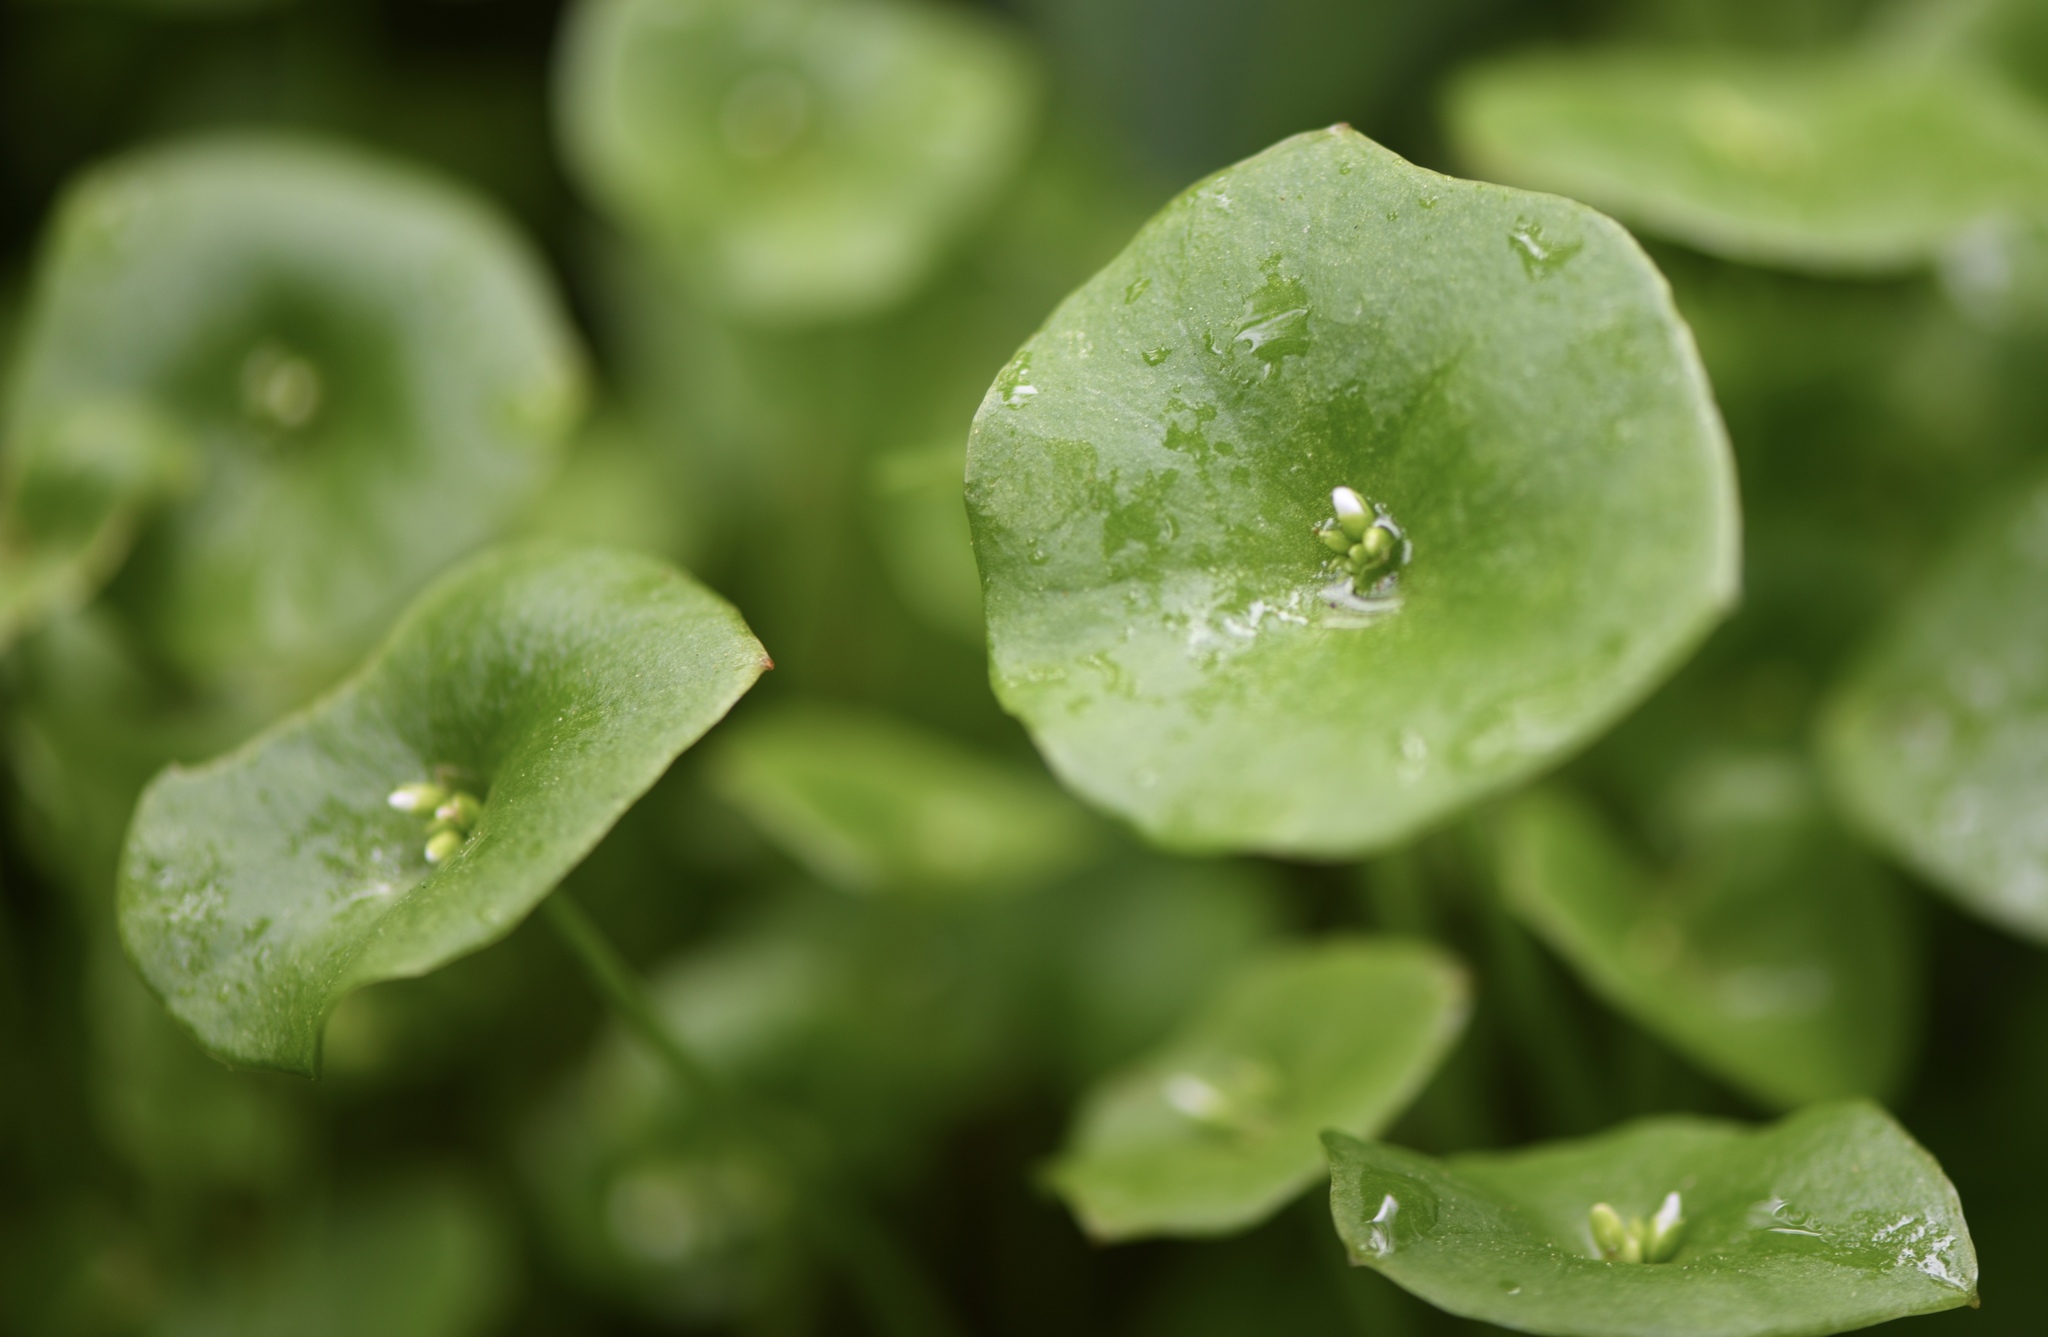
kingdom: Plantae
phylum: Tracheophyta
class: Magnoliopsida
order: Caryophyllales
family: Montiaceae
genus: Claytonia
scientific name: Claytonia perfoliata
